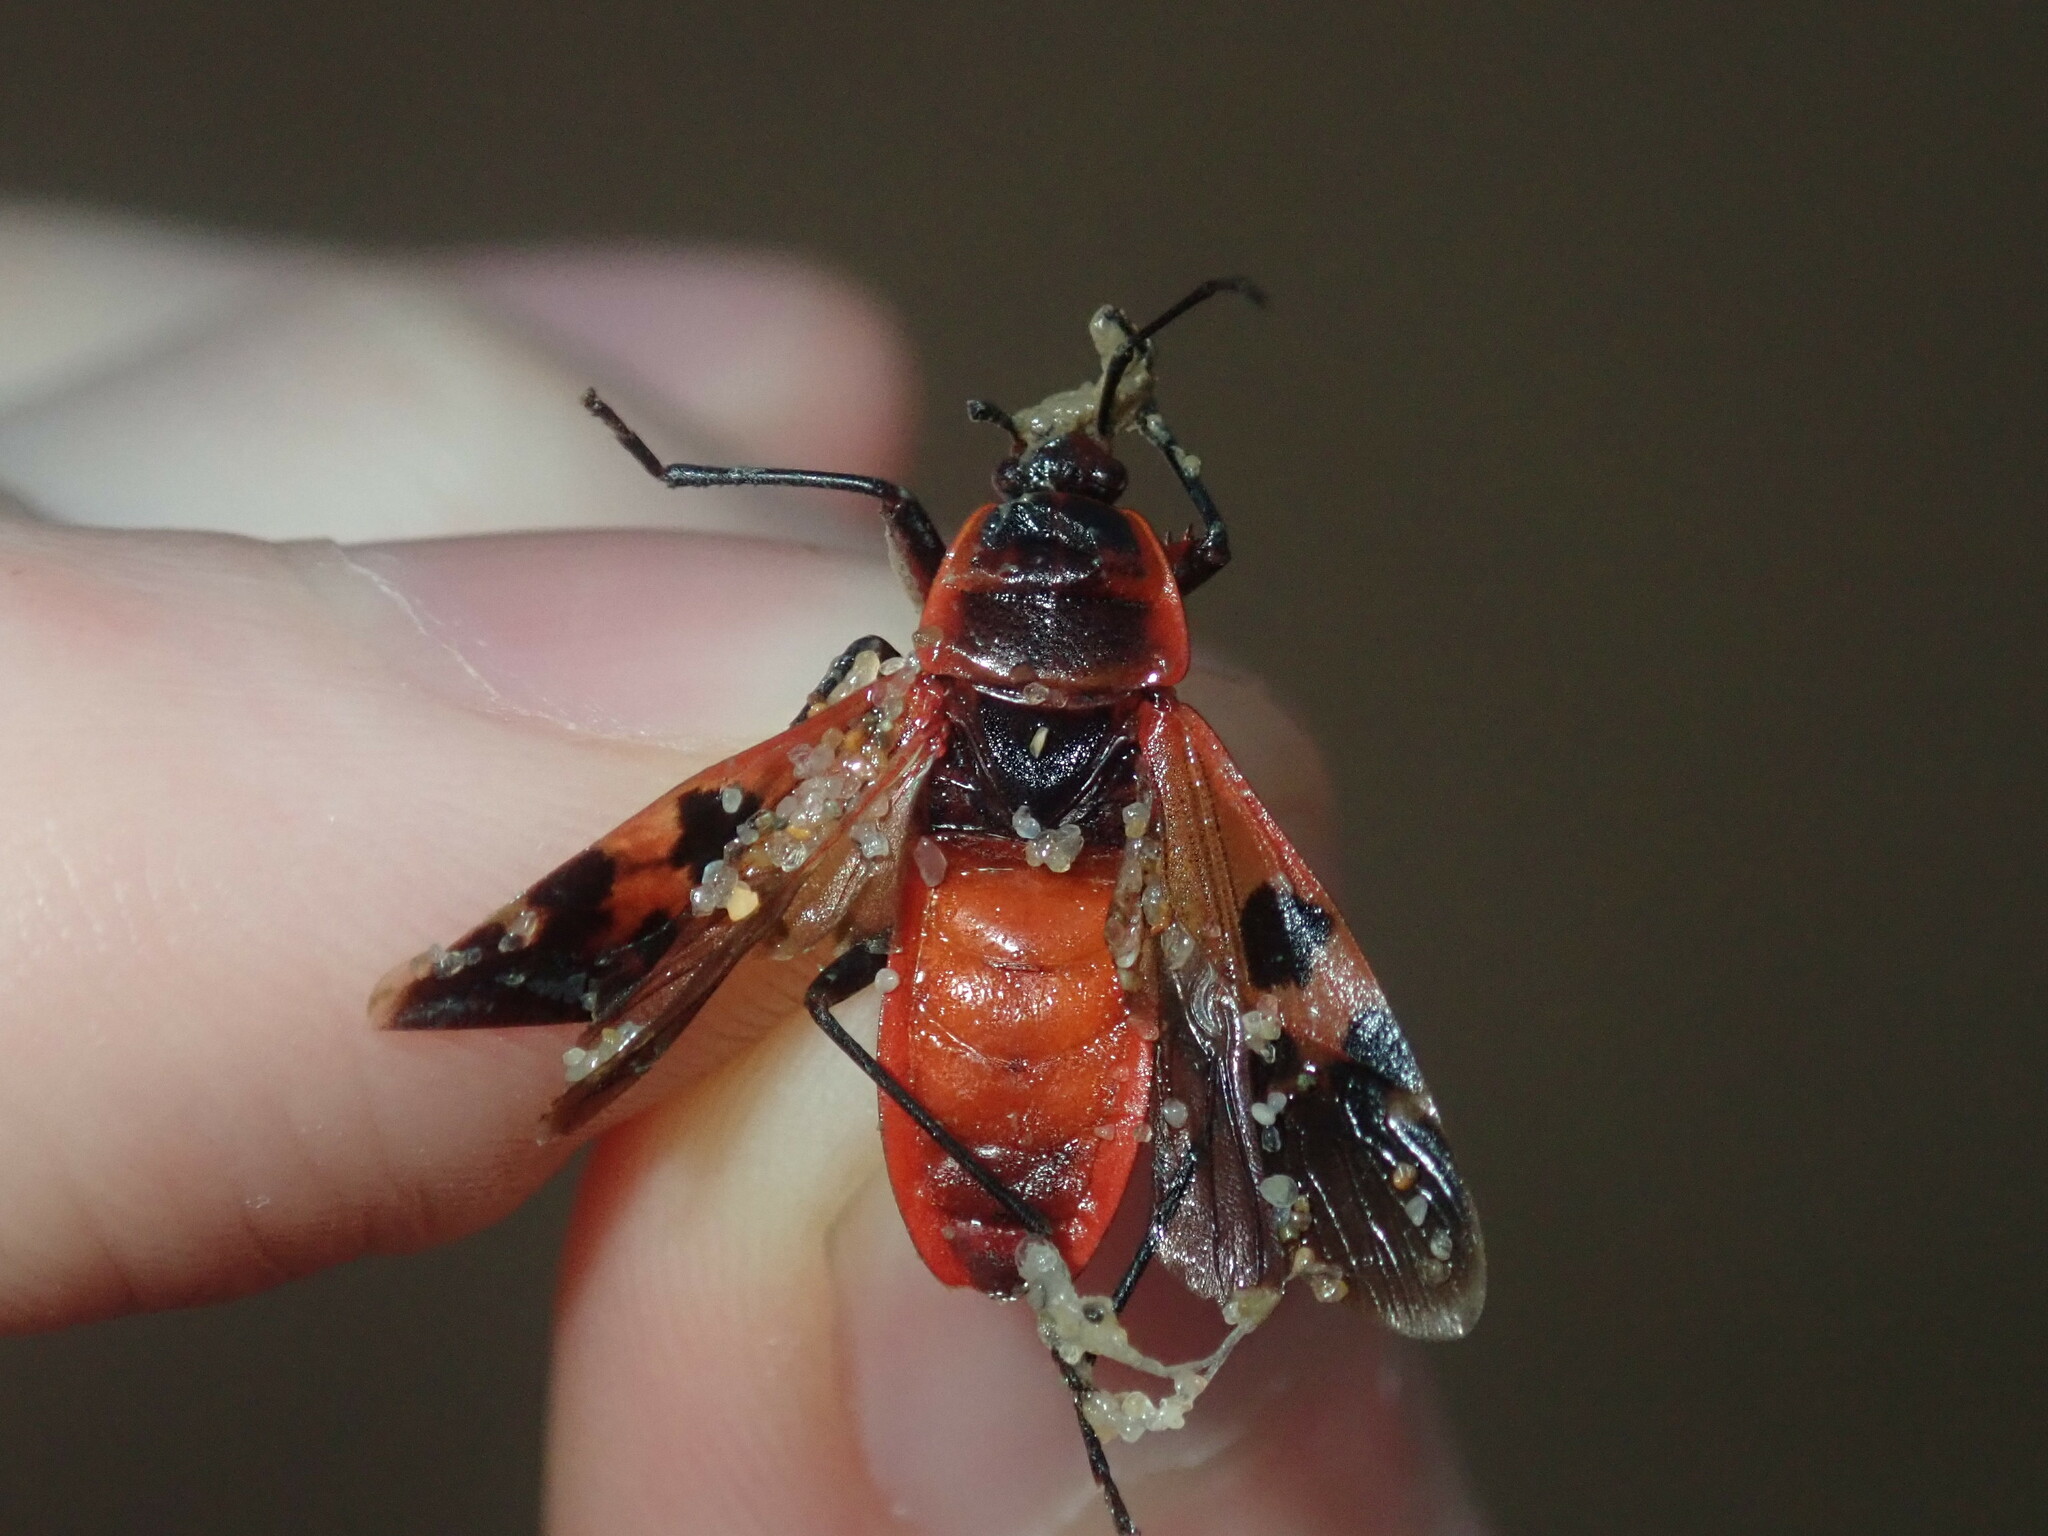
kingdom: Animalia
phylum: Arthropoda
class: Insecta
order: Hemiptera
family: Largidae
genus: Physopelta
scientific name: Physopelta gutta
